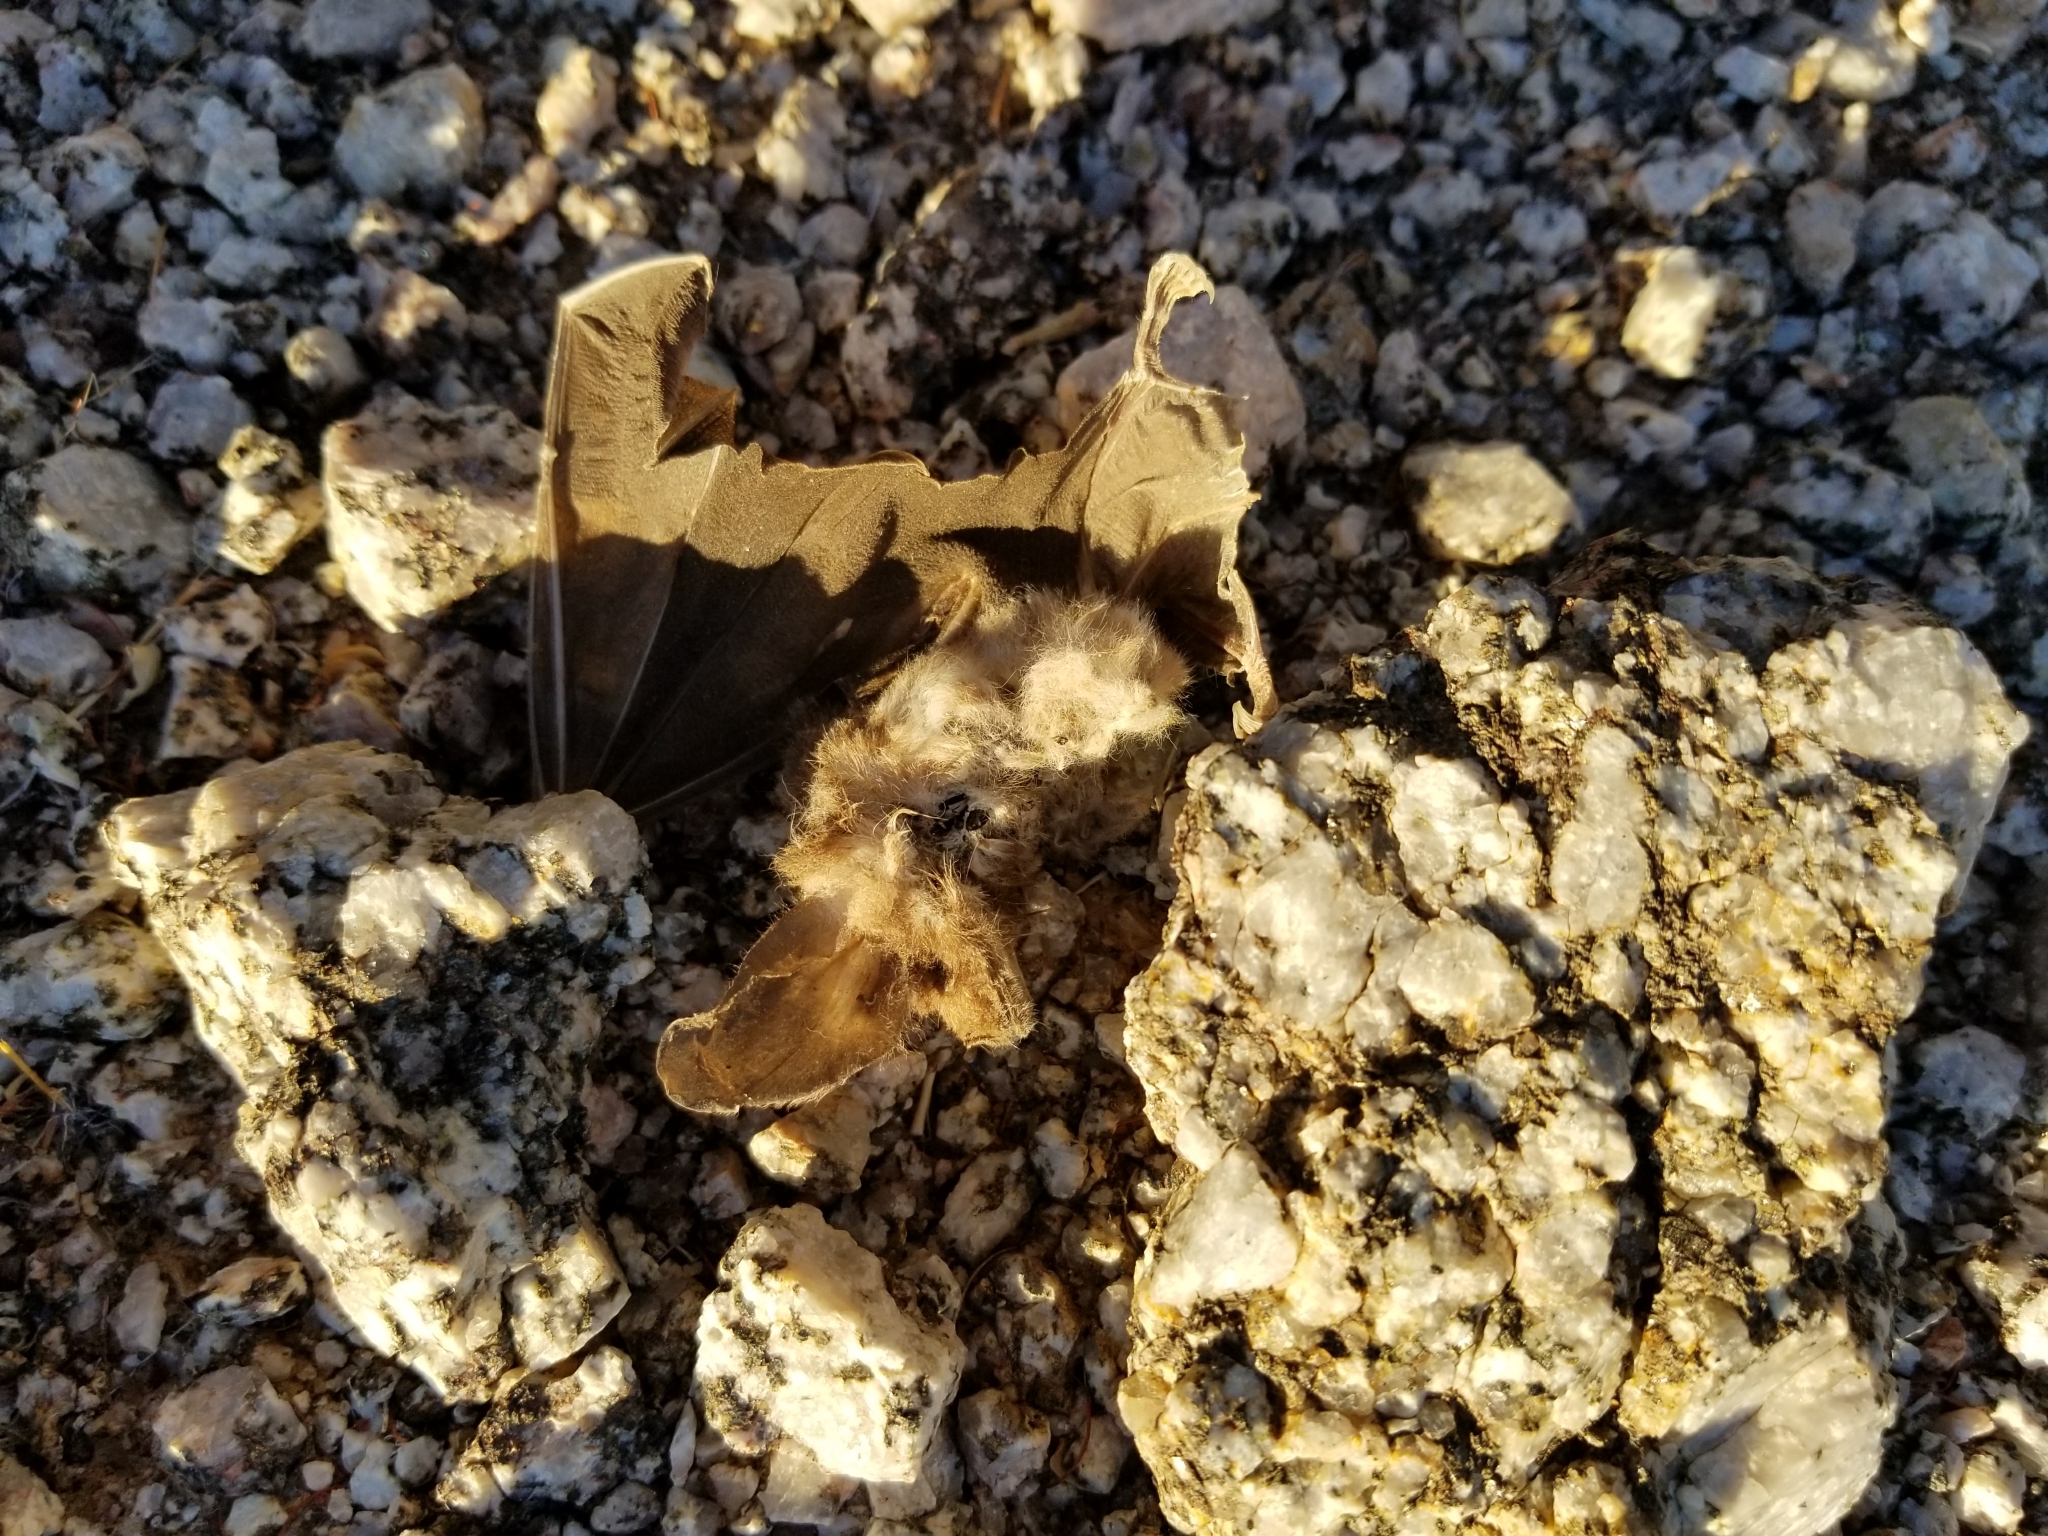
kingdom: Animalia
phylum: Chordata
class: Mammalia
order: Chiroptera
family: Phyllostomidae
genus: Macrotus
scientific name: Macrotus californicus
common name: Californian leaf-nosed bat
